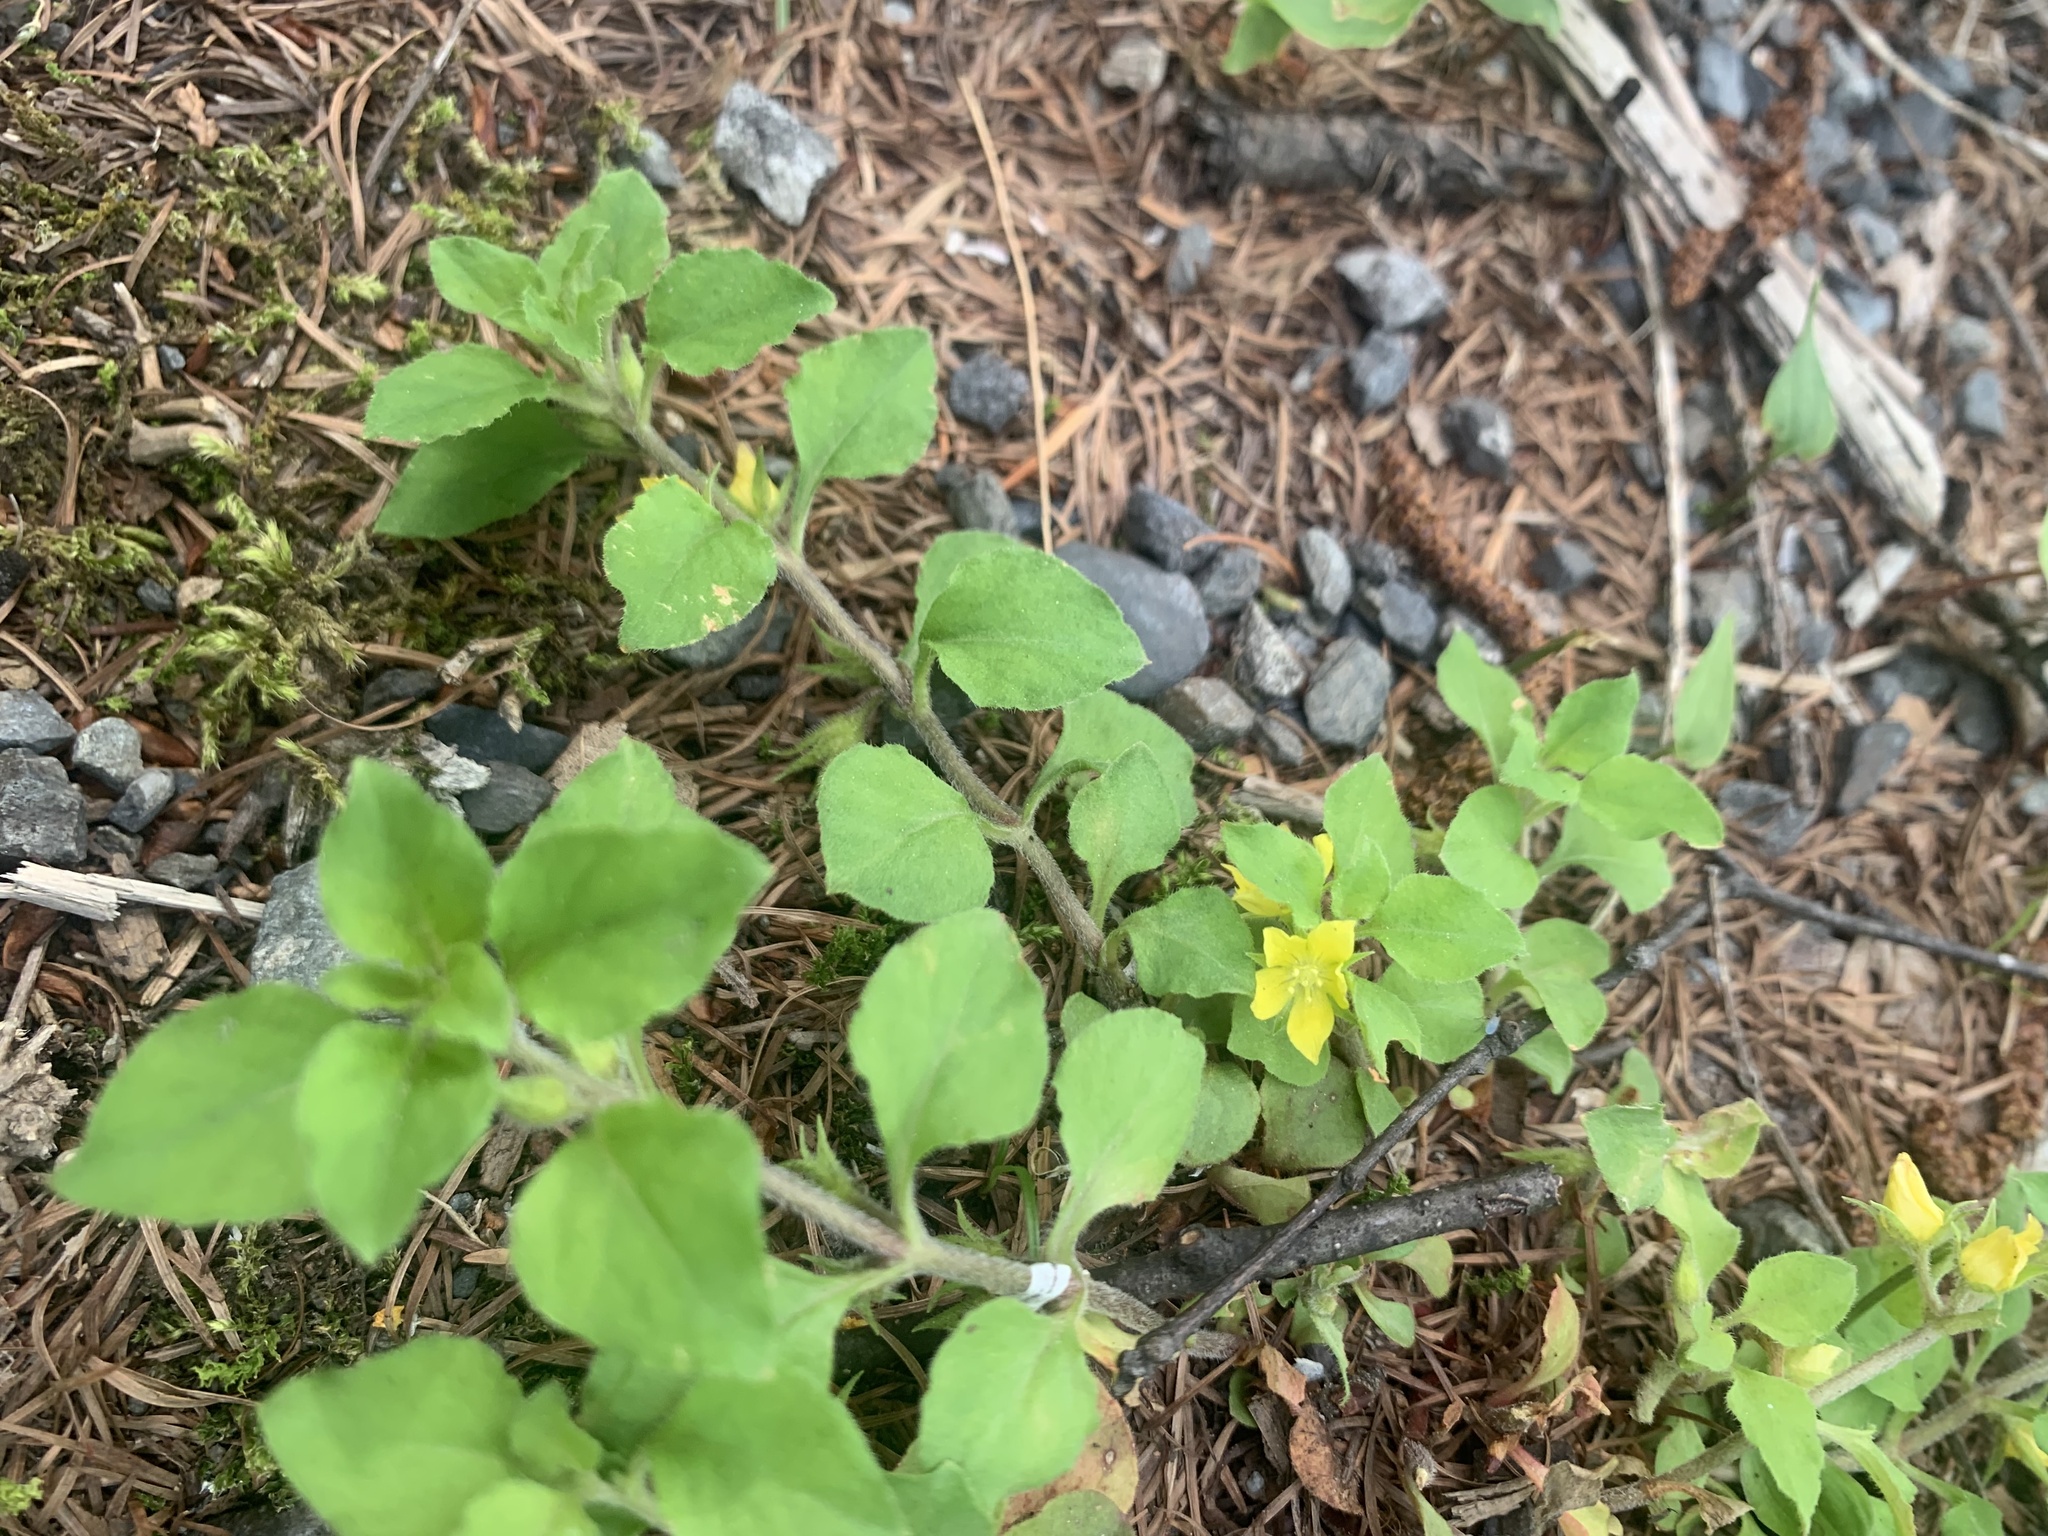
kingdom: Plantae
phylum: Tracheophyta
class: Magnoliopsida
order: Ericales
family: Primulaceae
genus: Lysimachia
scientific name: Lysimachia japonica
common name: Japanese yellow loosestrife
